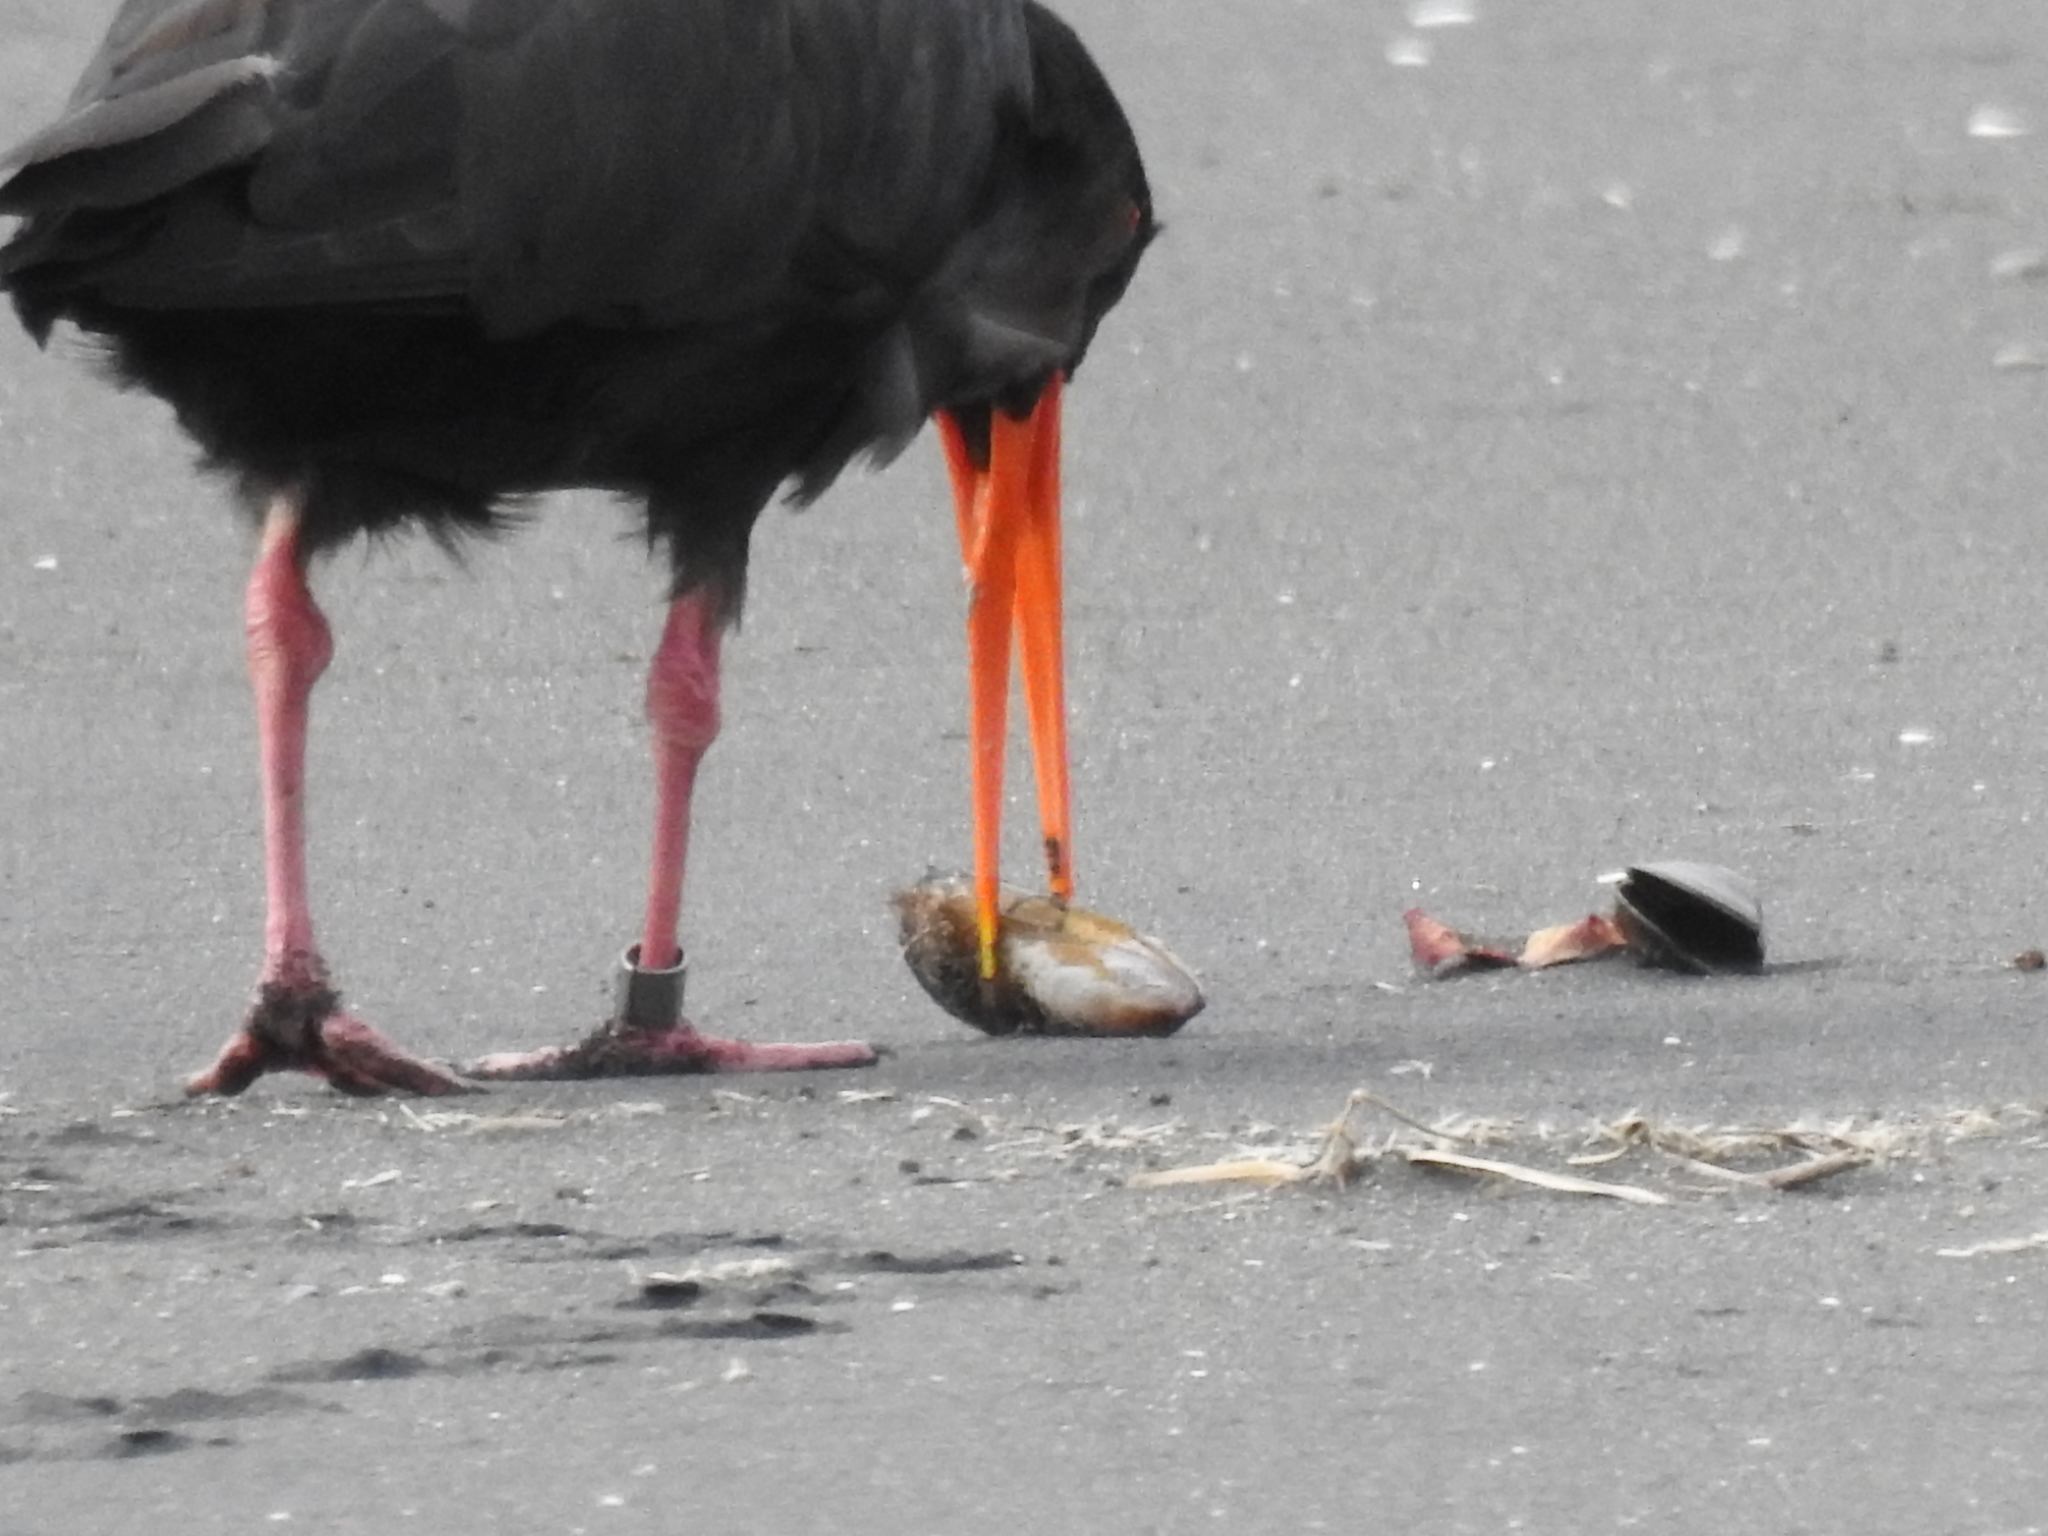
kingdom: Animalia
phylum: Chordata
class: Aves
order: Charadriiformes
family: Haematopodidae
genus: Haematopus
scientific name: Haematopus unicolor
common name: Variable oystercatcher
